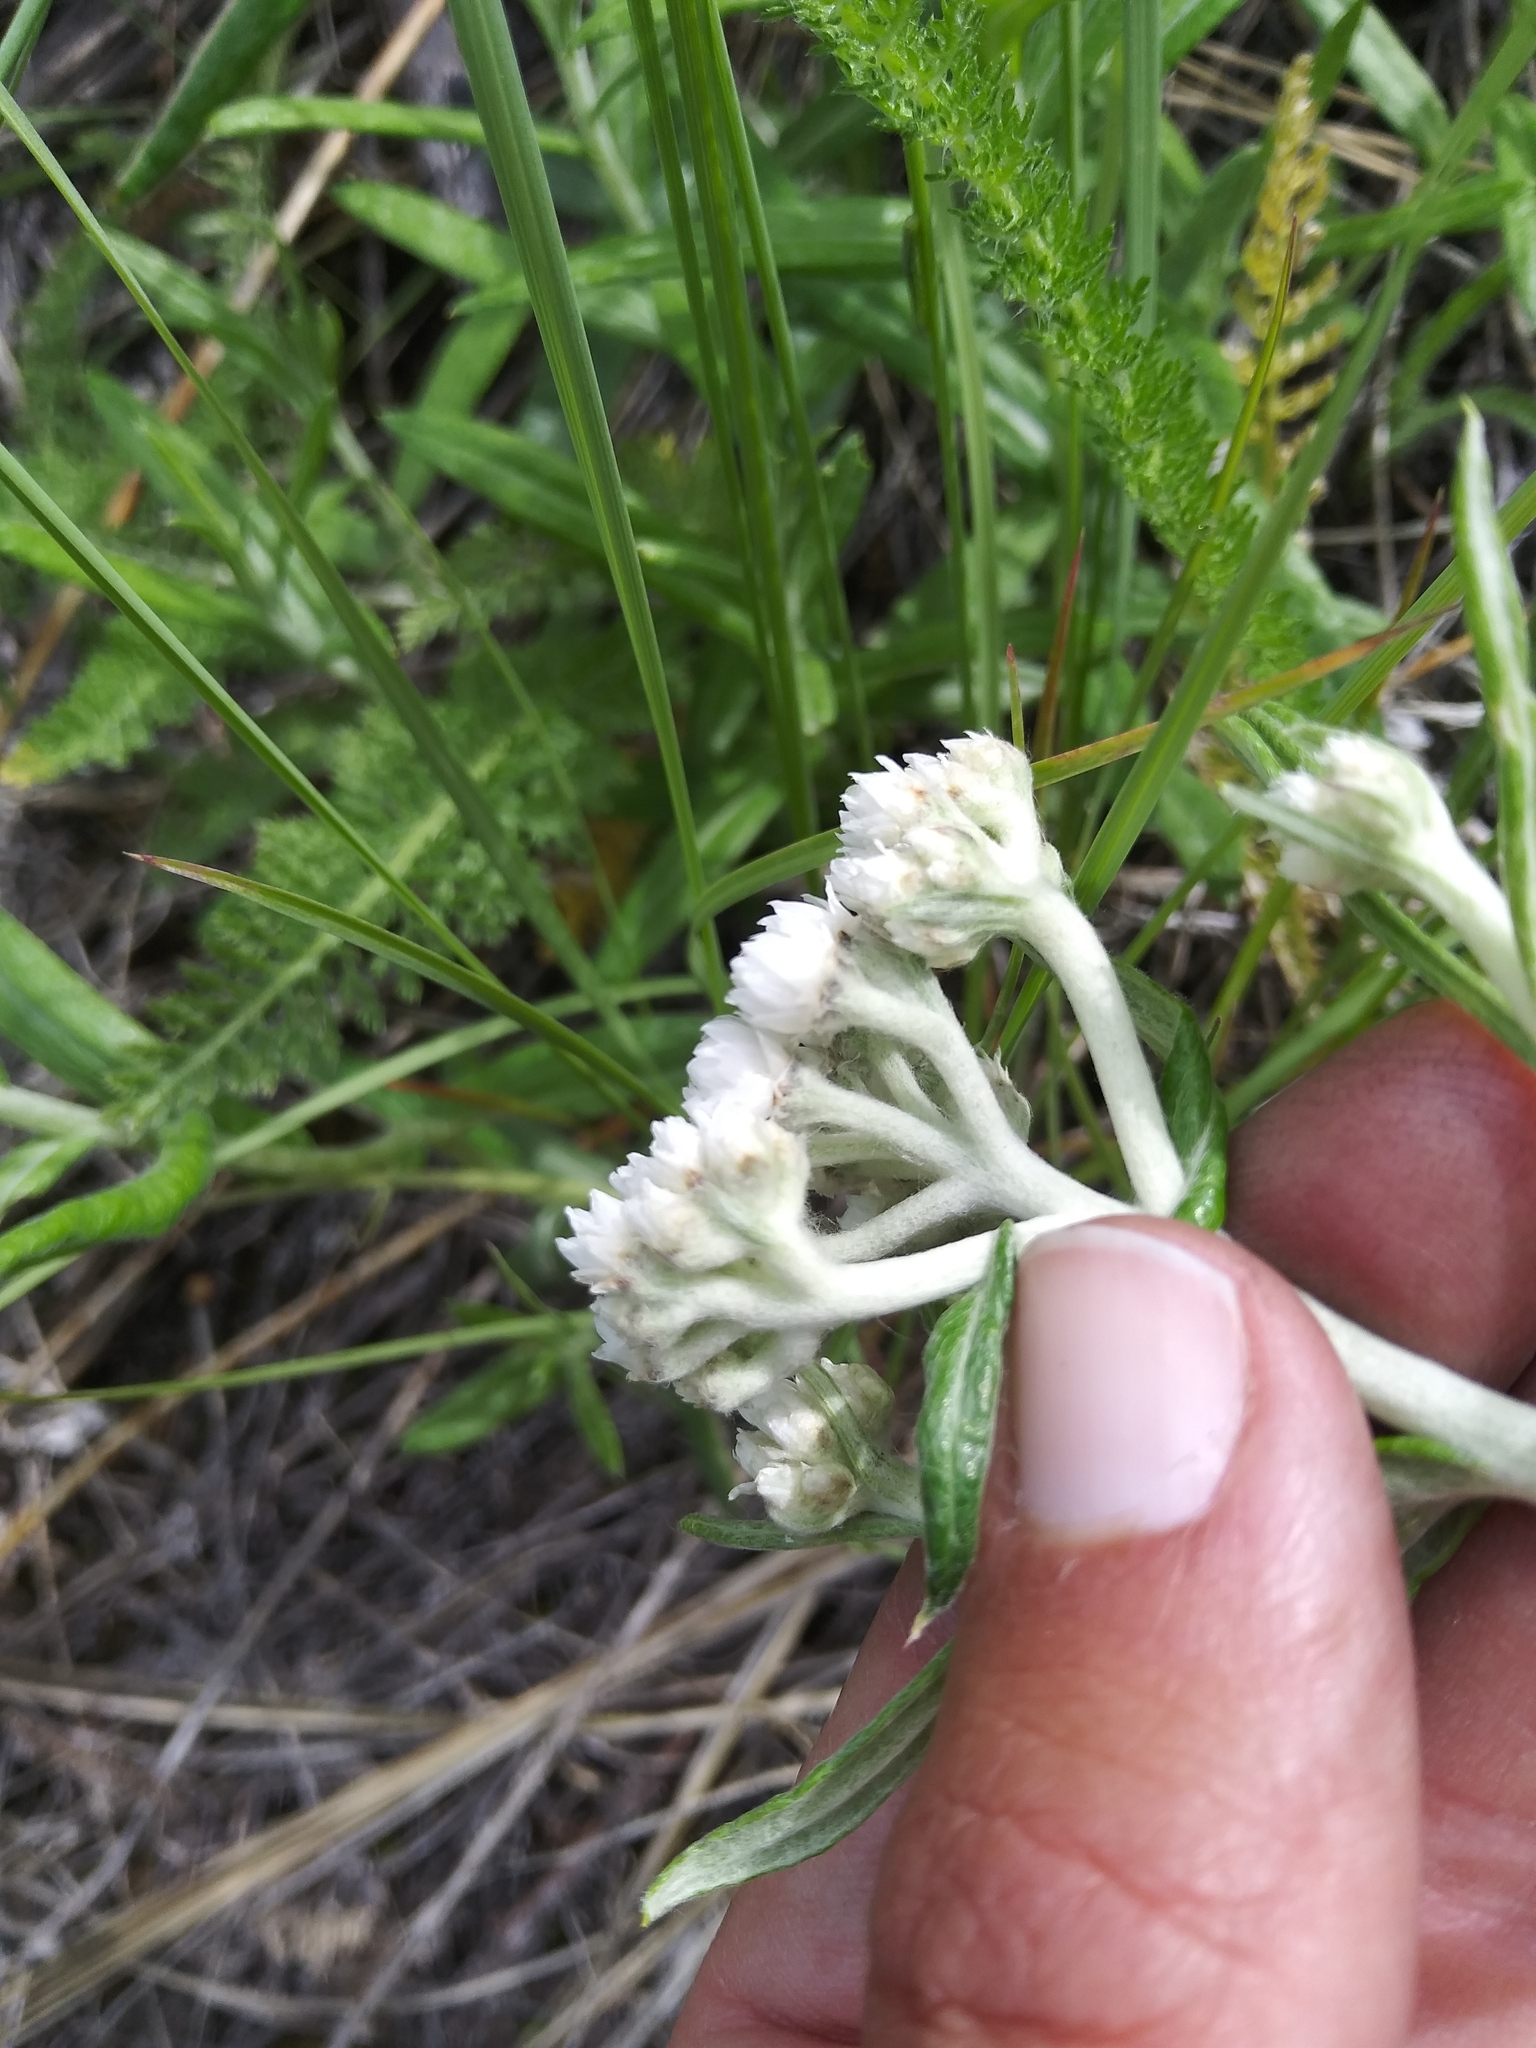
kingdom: Plantae
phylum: Tracheophyta
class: Magnoliopsida
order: Asterales
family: Asteraceae
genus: Anaphalis
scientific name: Anaphalis margaritacea
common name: Pearly everlasting
